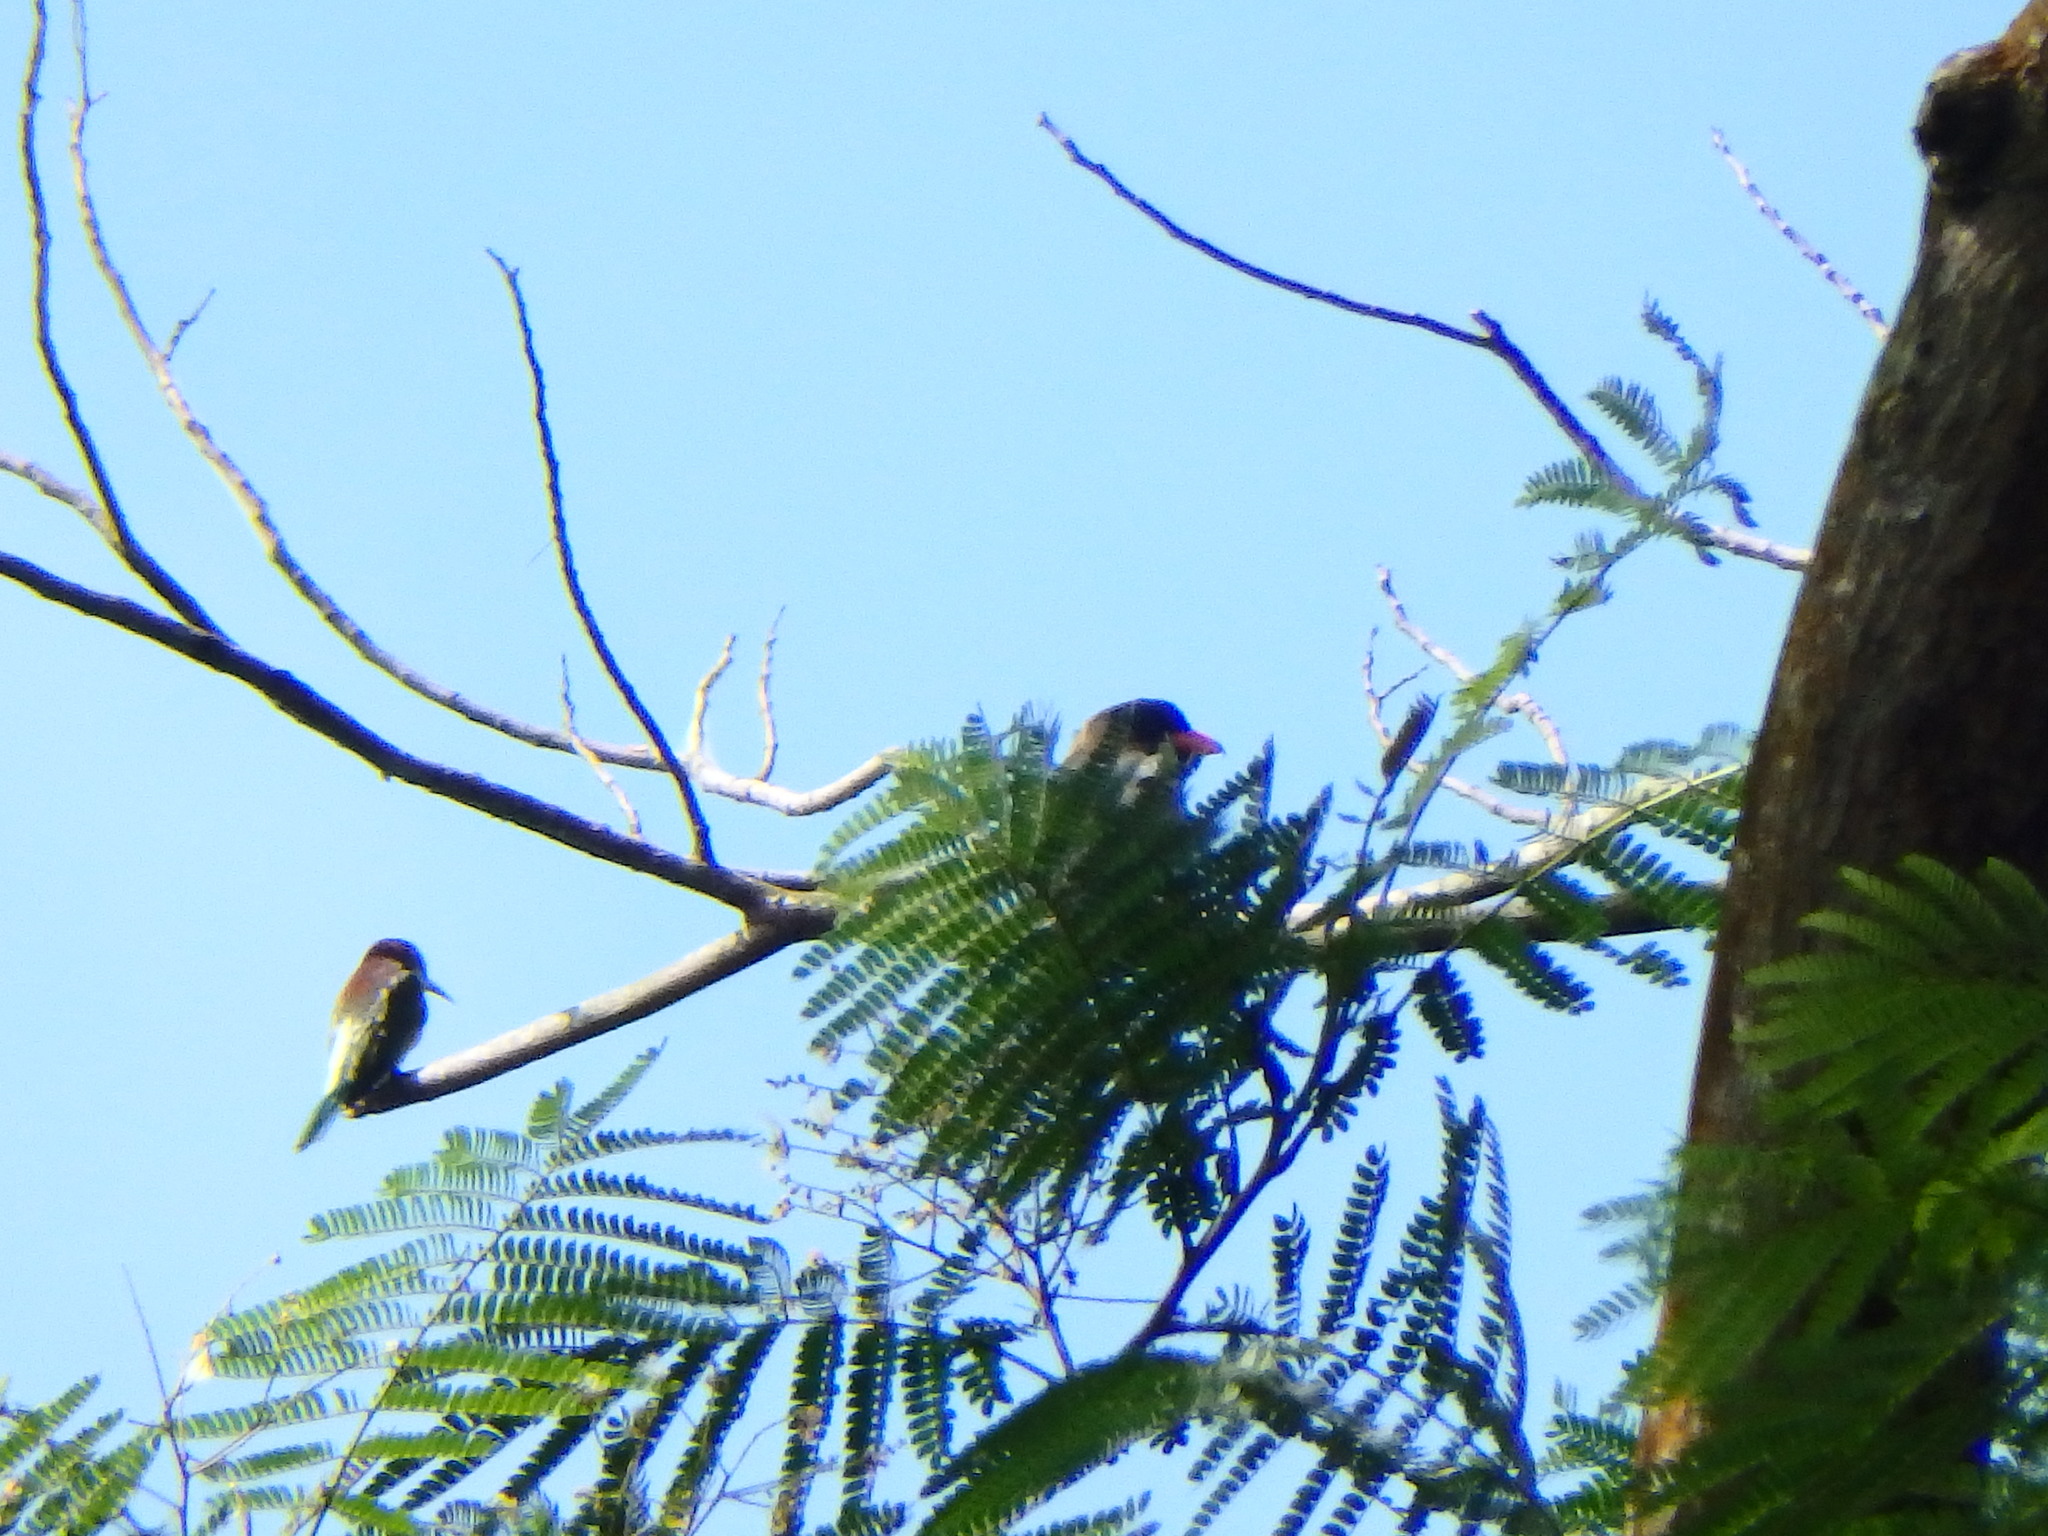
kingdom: Animalia
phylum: Chordata
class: Aves
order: Coraciiformes
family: Meropidae
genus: Merops
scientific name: Merops viridis
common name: Blue-throated bee-eater
